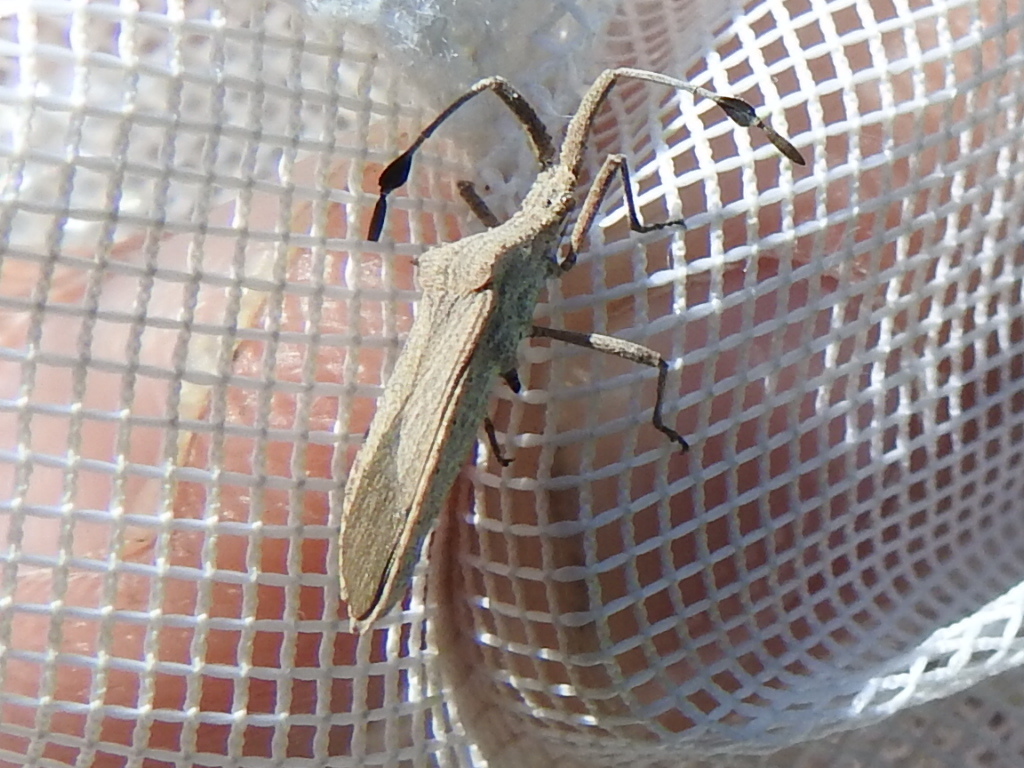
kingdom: Animalia
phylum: Arthropoda
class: Insecta
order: Hemiptera
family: Coreidae
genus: Chariesterus
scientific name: Chariesterus antennator
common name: Flat horned coreid
